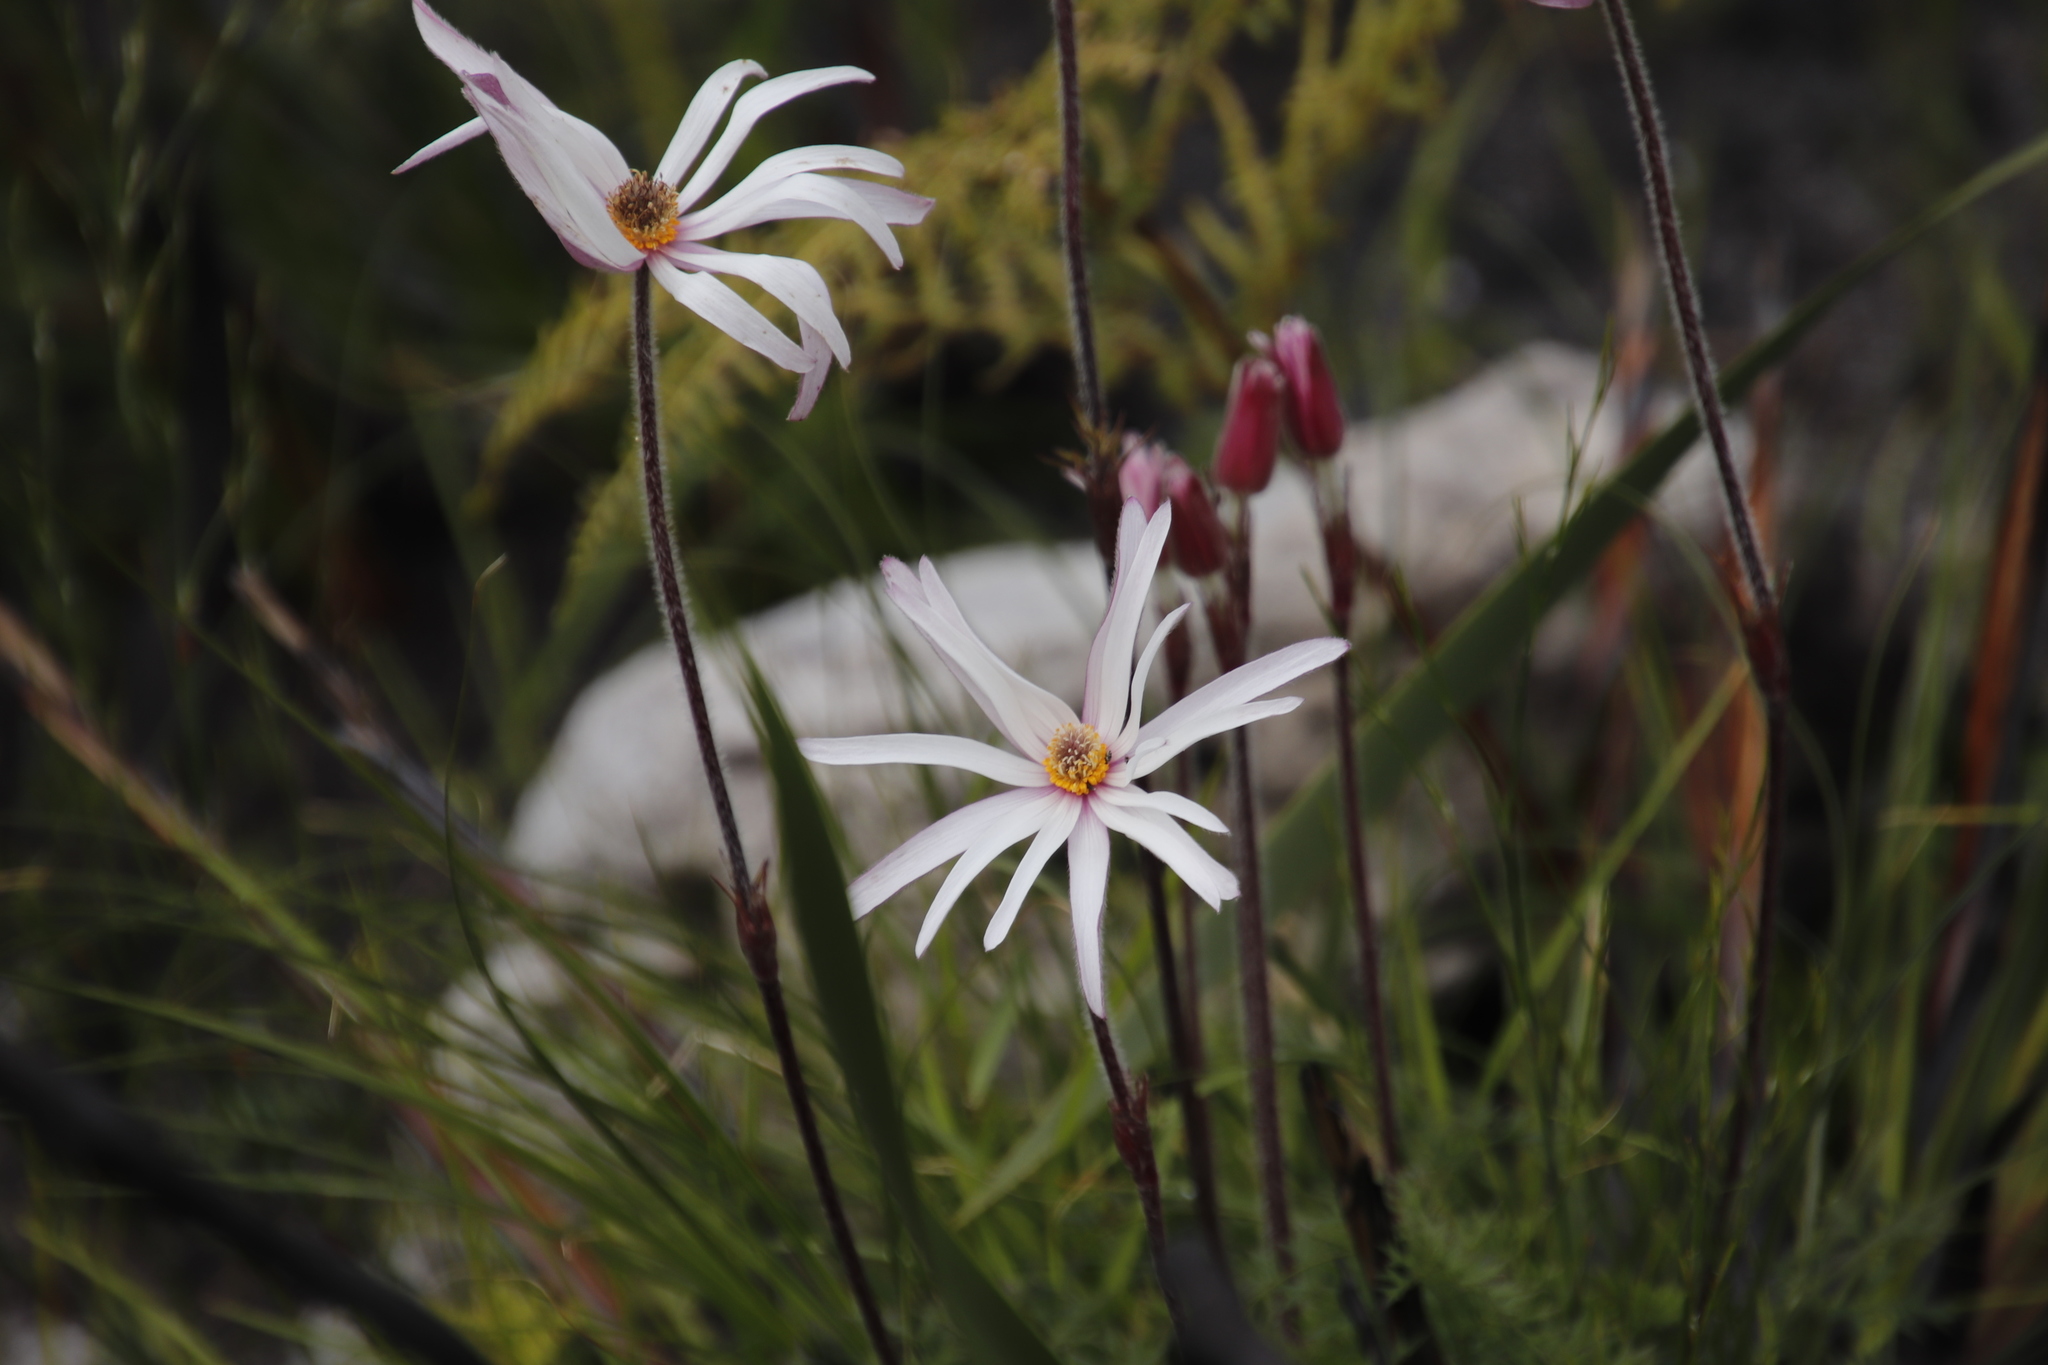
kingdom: Plantae
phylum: Tracheophyta
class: Magnoliopsida
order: Ranunculales
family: Ranunculaceae
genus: Knowltonia
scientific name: Knowltonia tenuifolia
